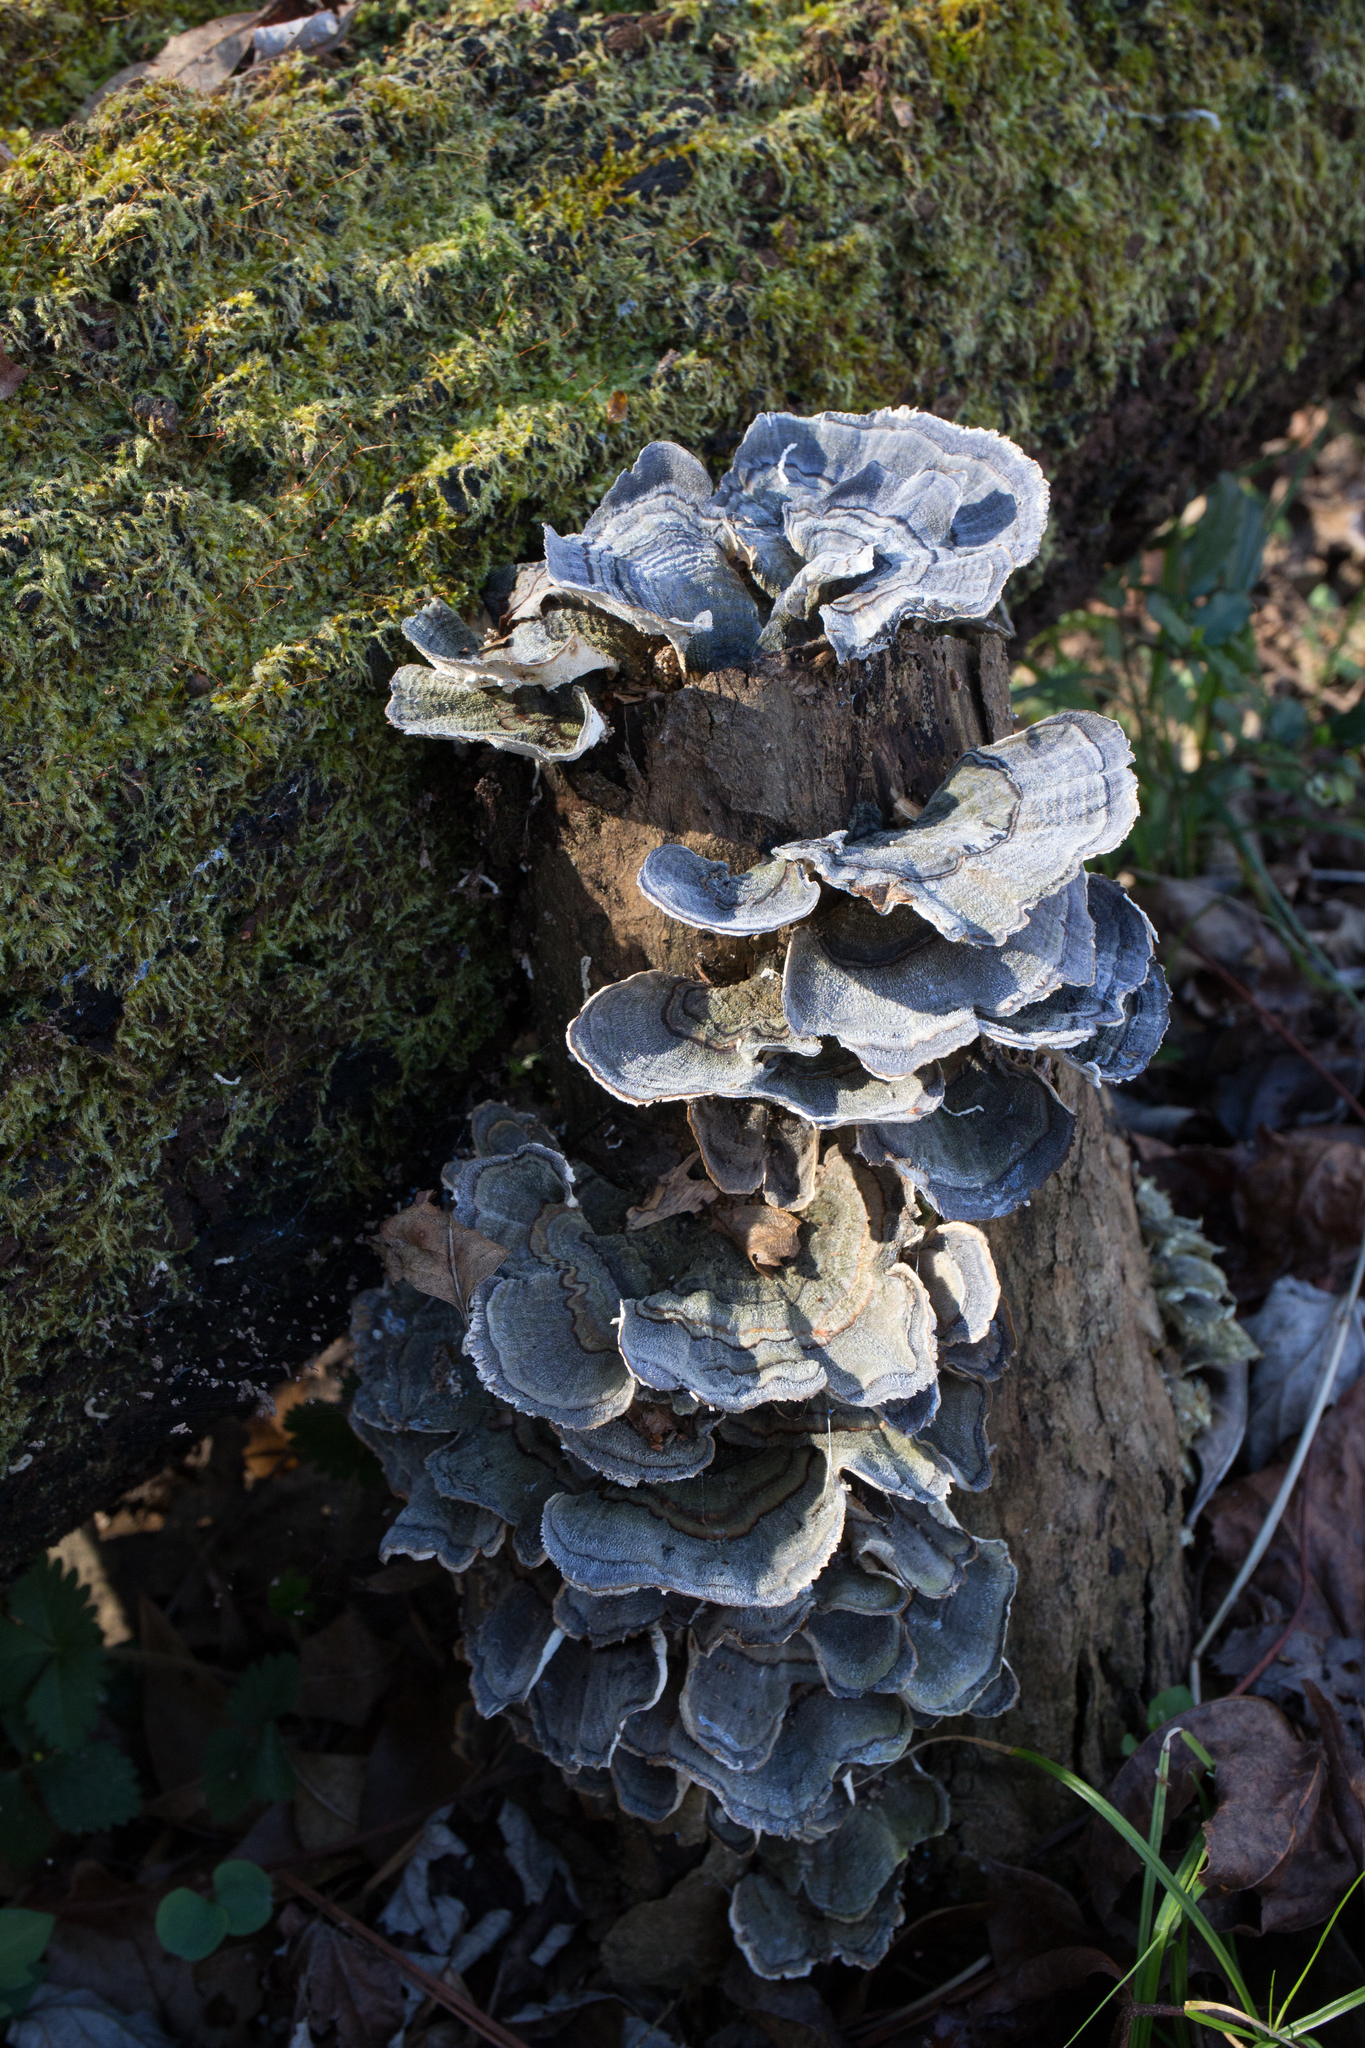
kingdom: Fungi
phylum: Basidiomycota
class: Agaricomycetes
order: Polyporales
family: Polyporaceae
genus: Trametes
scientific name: Trametes versicolor
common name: Turkeytail
